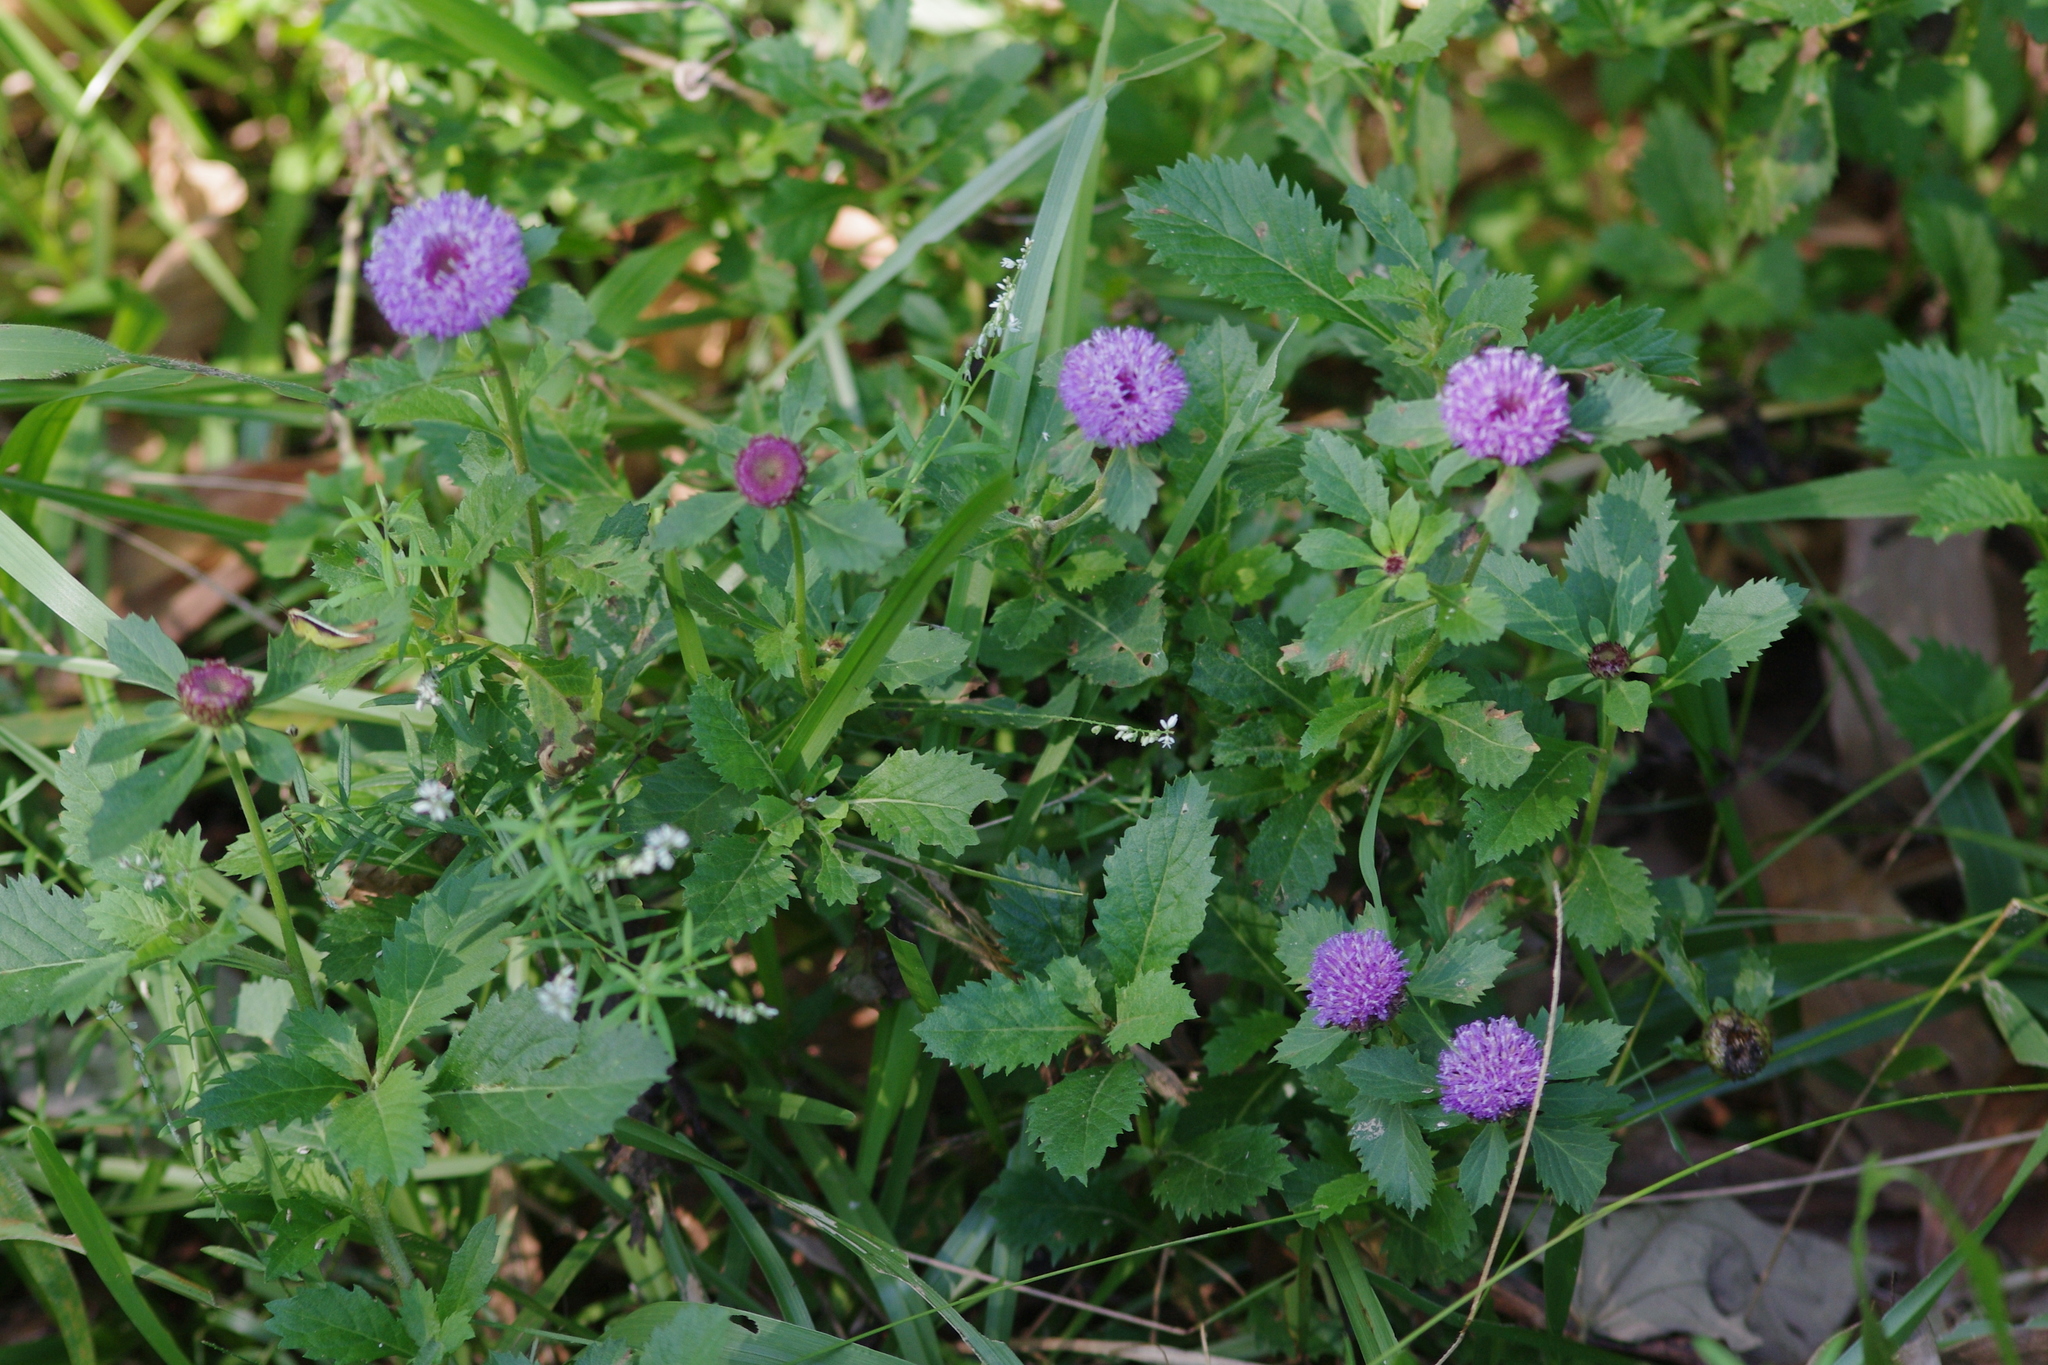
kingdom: Plantae
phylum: Tracheophyta
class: Magnoliopsida
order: Asterales
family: Asteraceae
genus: Centratherum
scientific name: Centratherum punctatum
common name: Larkdaisy
